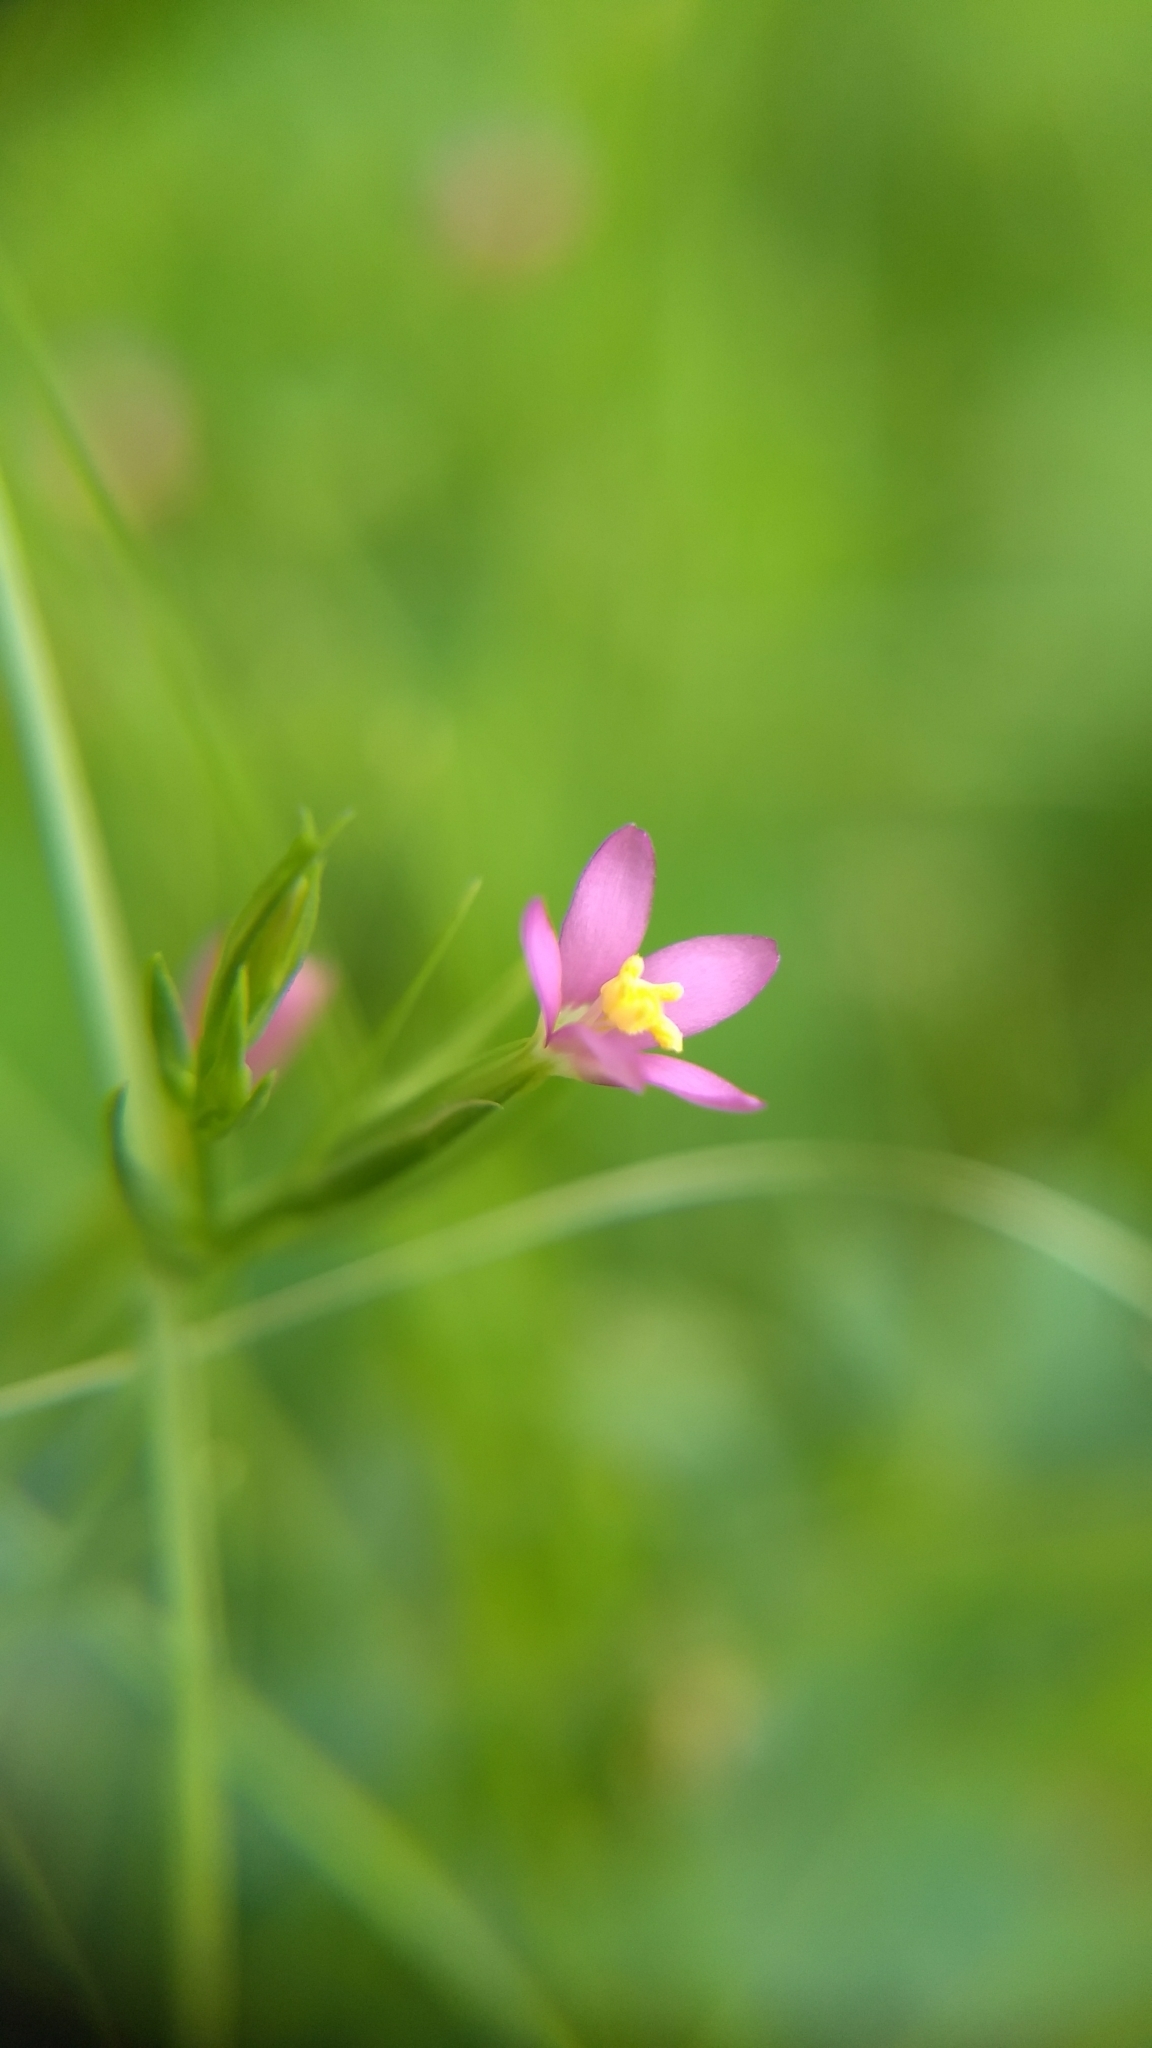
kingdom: Plantae
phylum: Tracheophyta
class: Magnoliopsida
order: Gentianales
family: Gentianaceae
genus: Centaurium
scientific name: Centaurium pulchellum
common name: Lesser centaury
